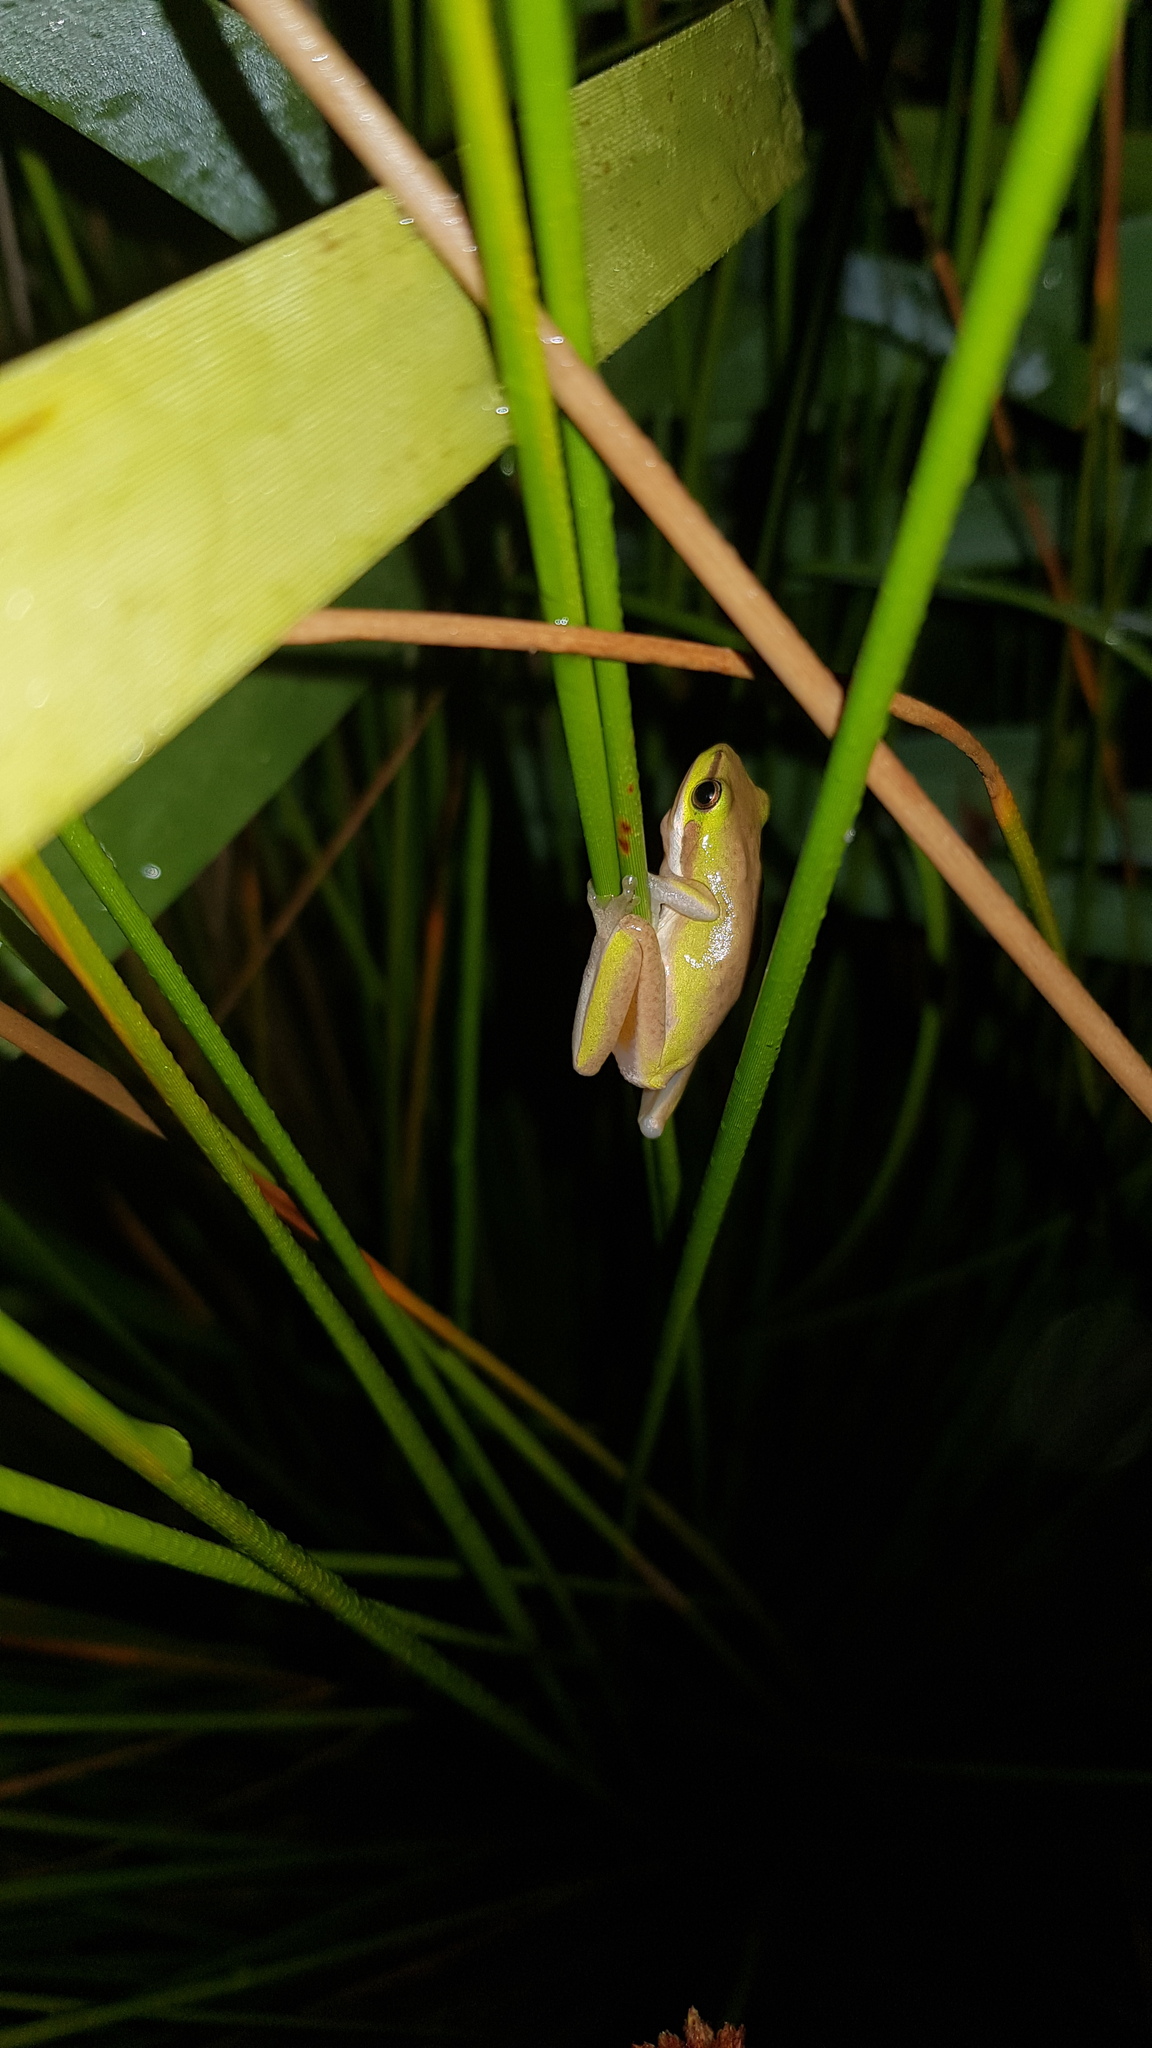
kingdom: Animalia
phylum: Chordata
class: Amphibia
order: Anura
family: Pelodryadidae
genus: Litoria
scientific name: Litoria fallax
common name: Eastern dwarf treefrog
